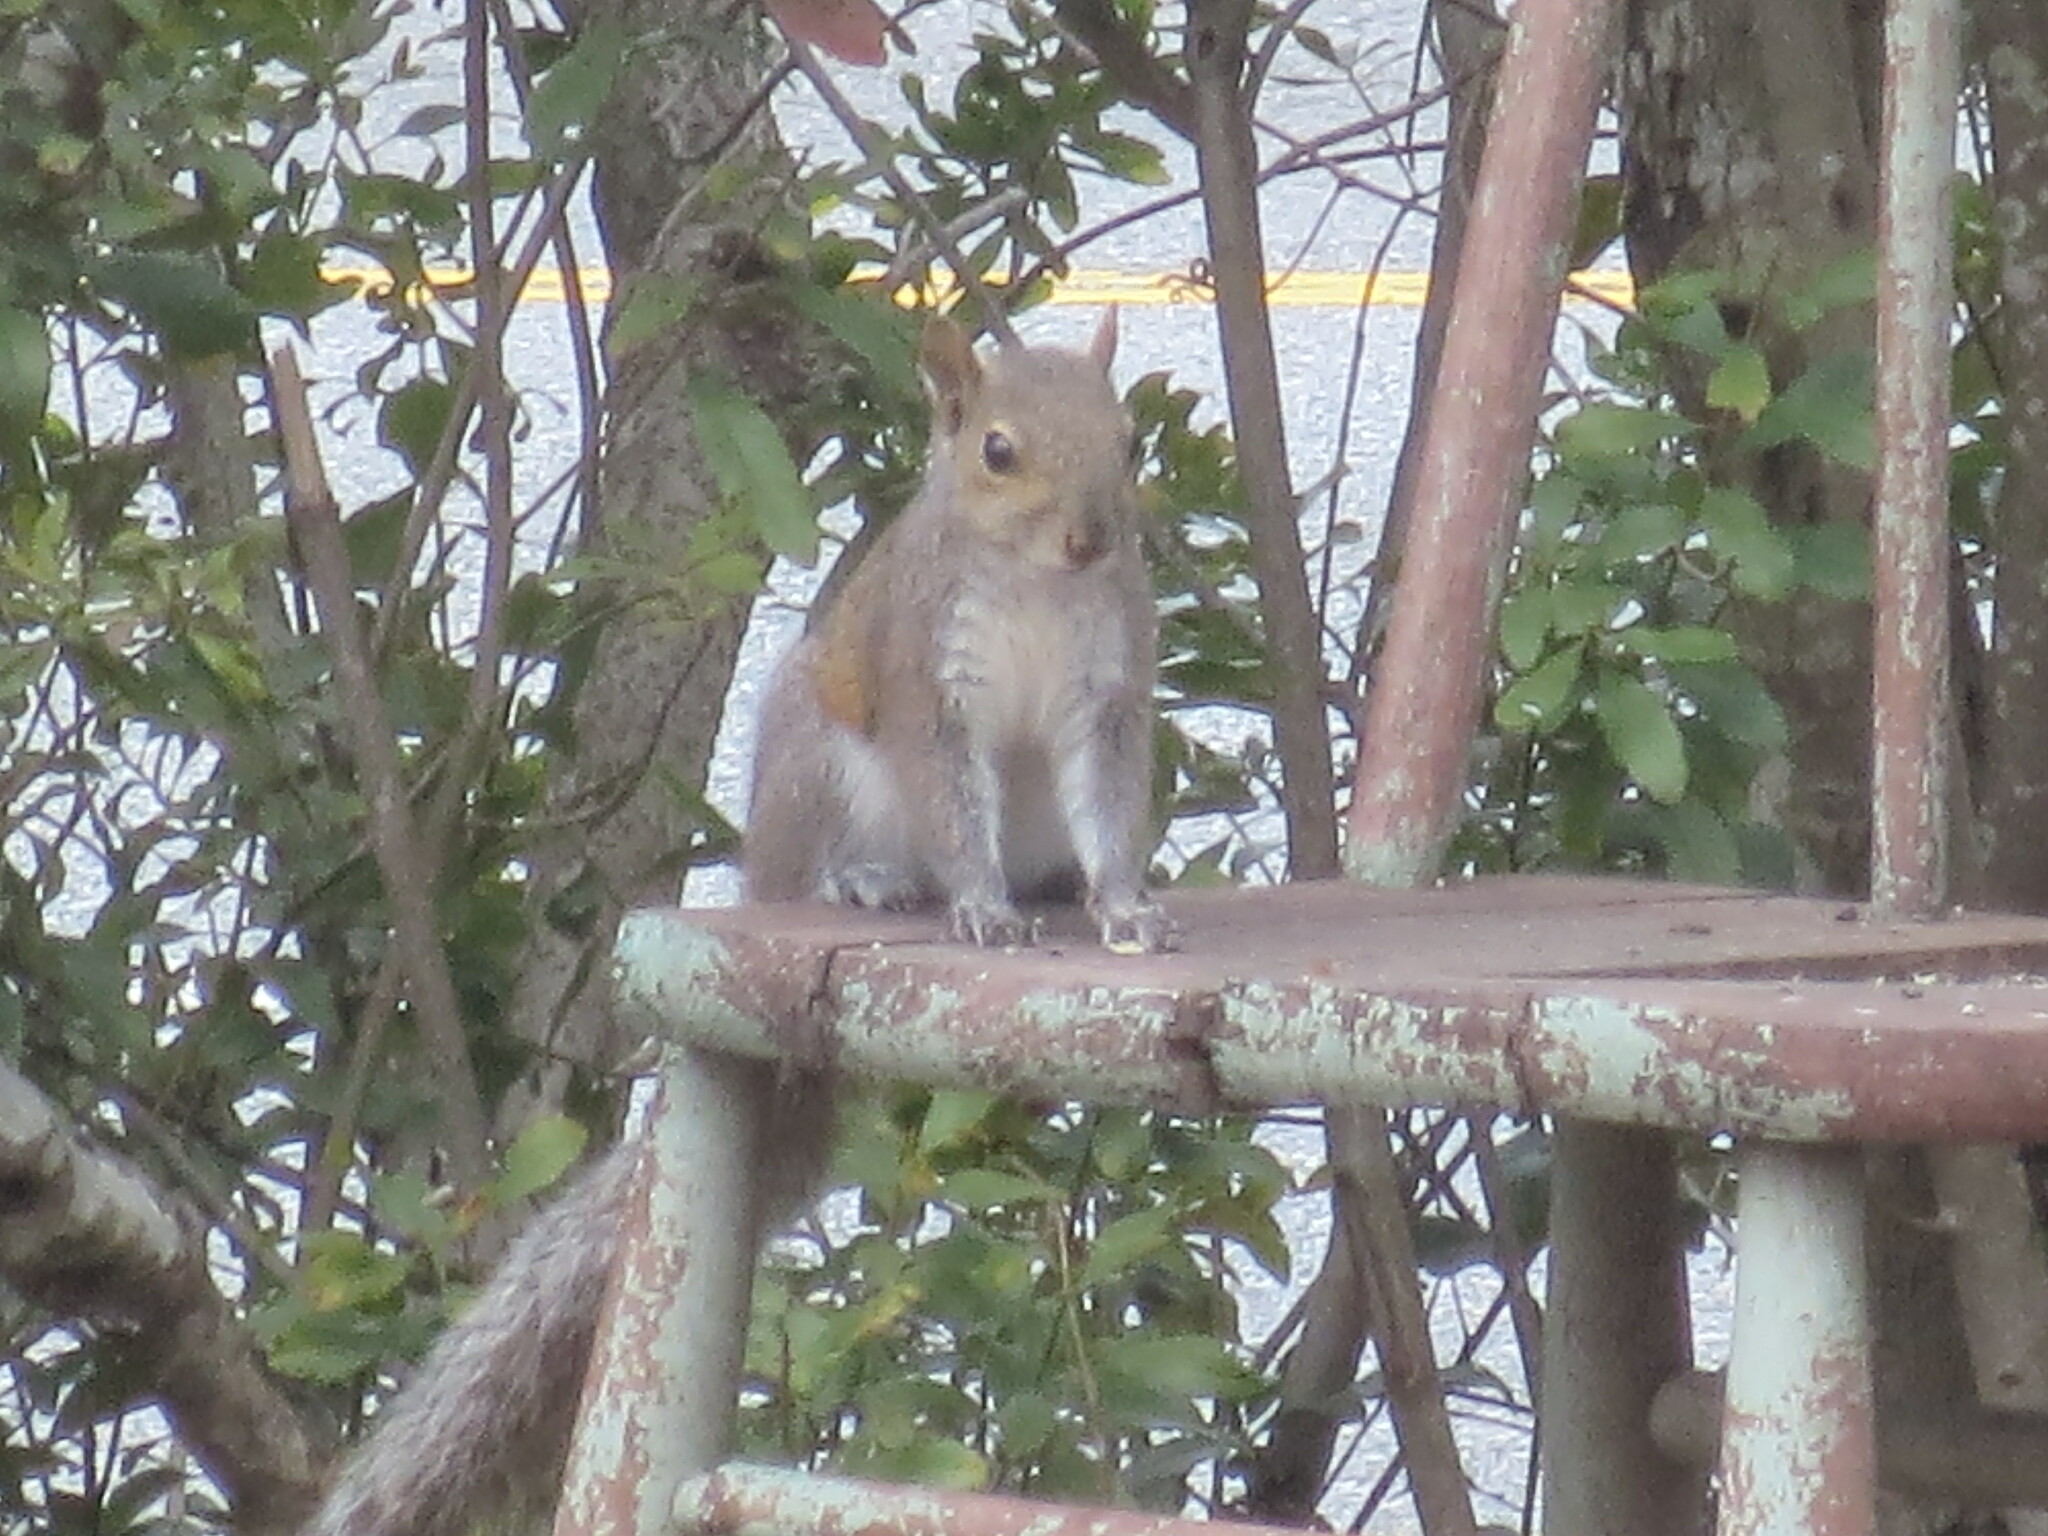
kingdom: Animalia
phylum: Chordata
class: Mammalia
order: Rodentia
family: Sciuridae
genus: Sciurus
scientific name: Sciurus carolinensis
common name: Eastern gray squirrel
